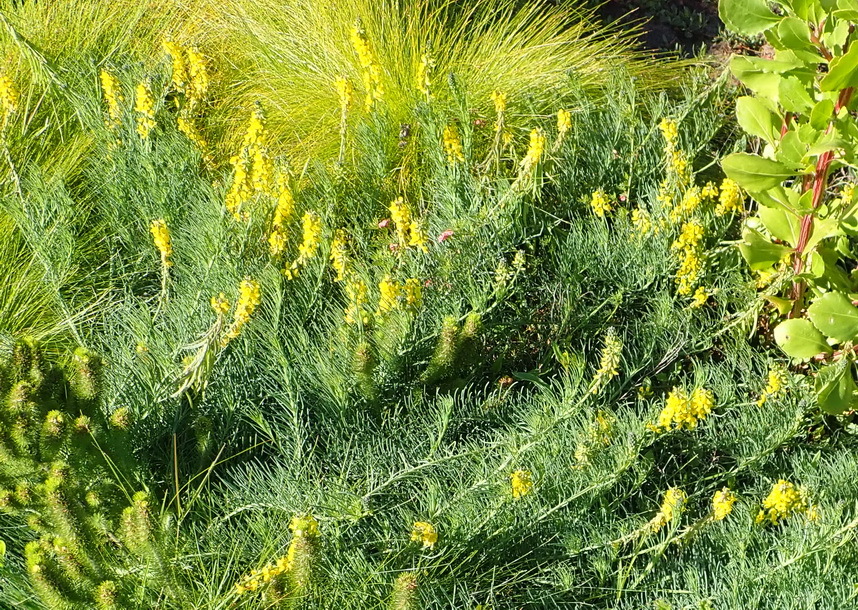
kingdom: Plantae
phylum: Tracheophyta
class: Magnoliopsida
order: Fabales
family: Fabaceae
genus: Lebeckia
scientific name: Lebeckia gracilis
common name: Slender ganna
